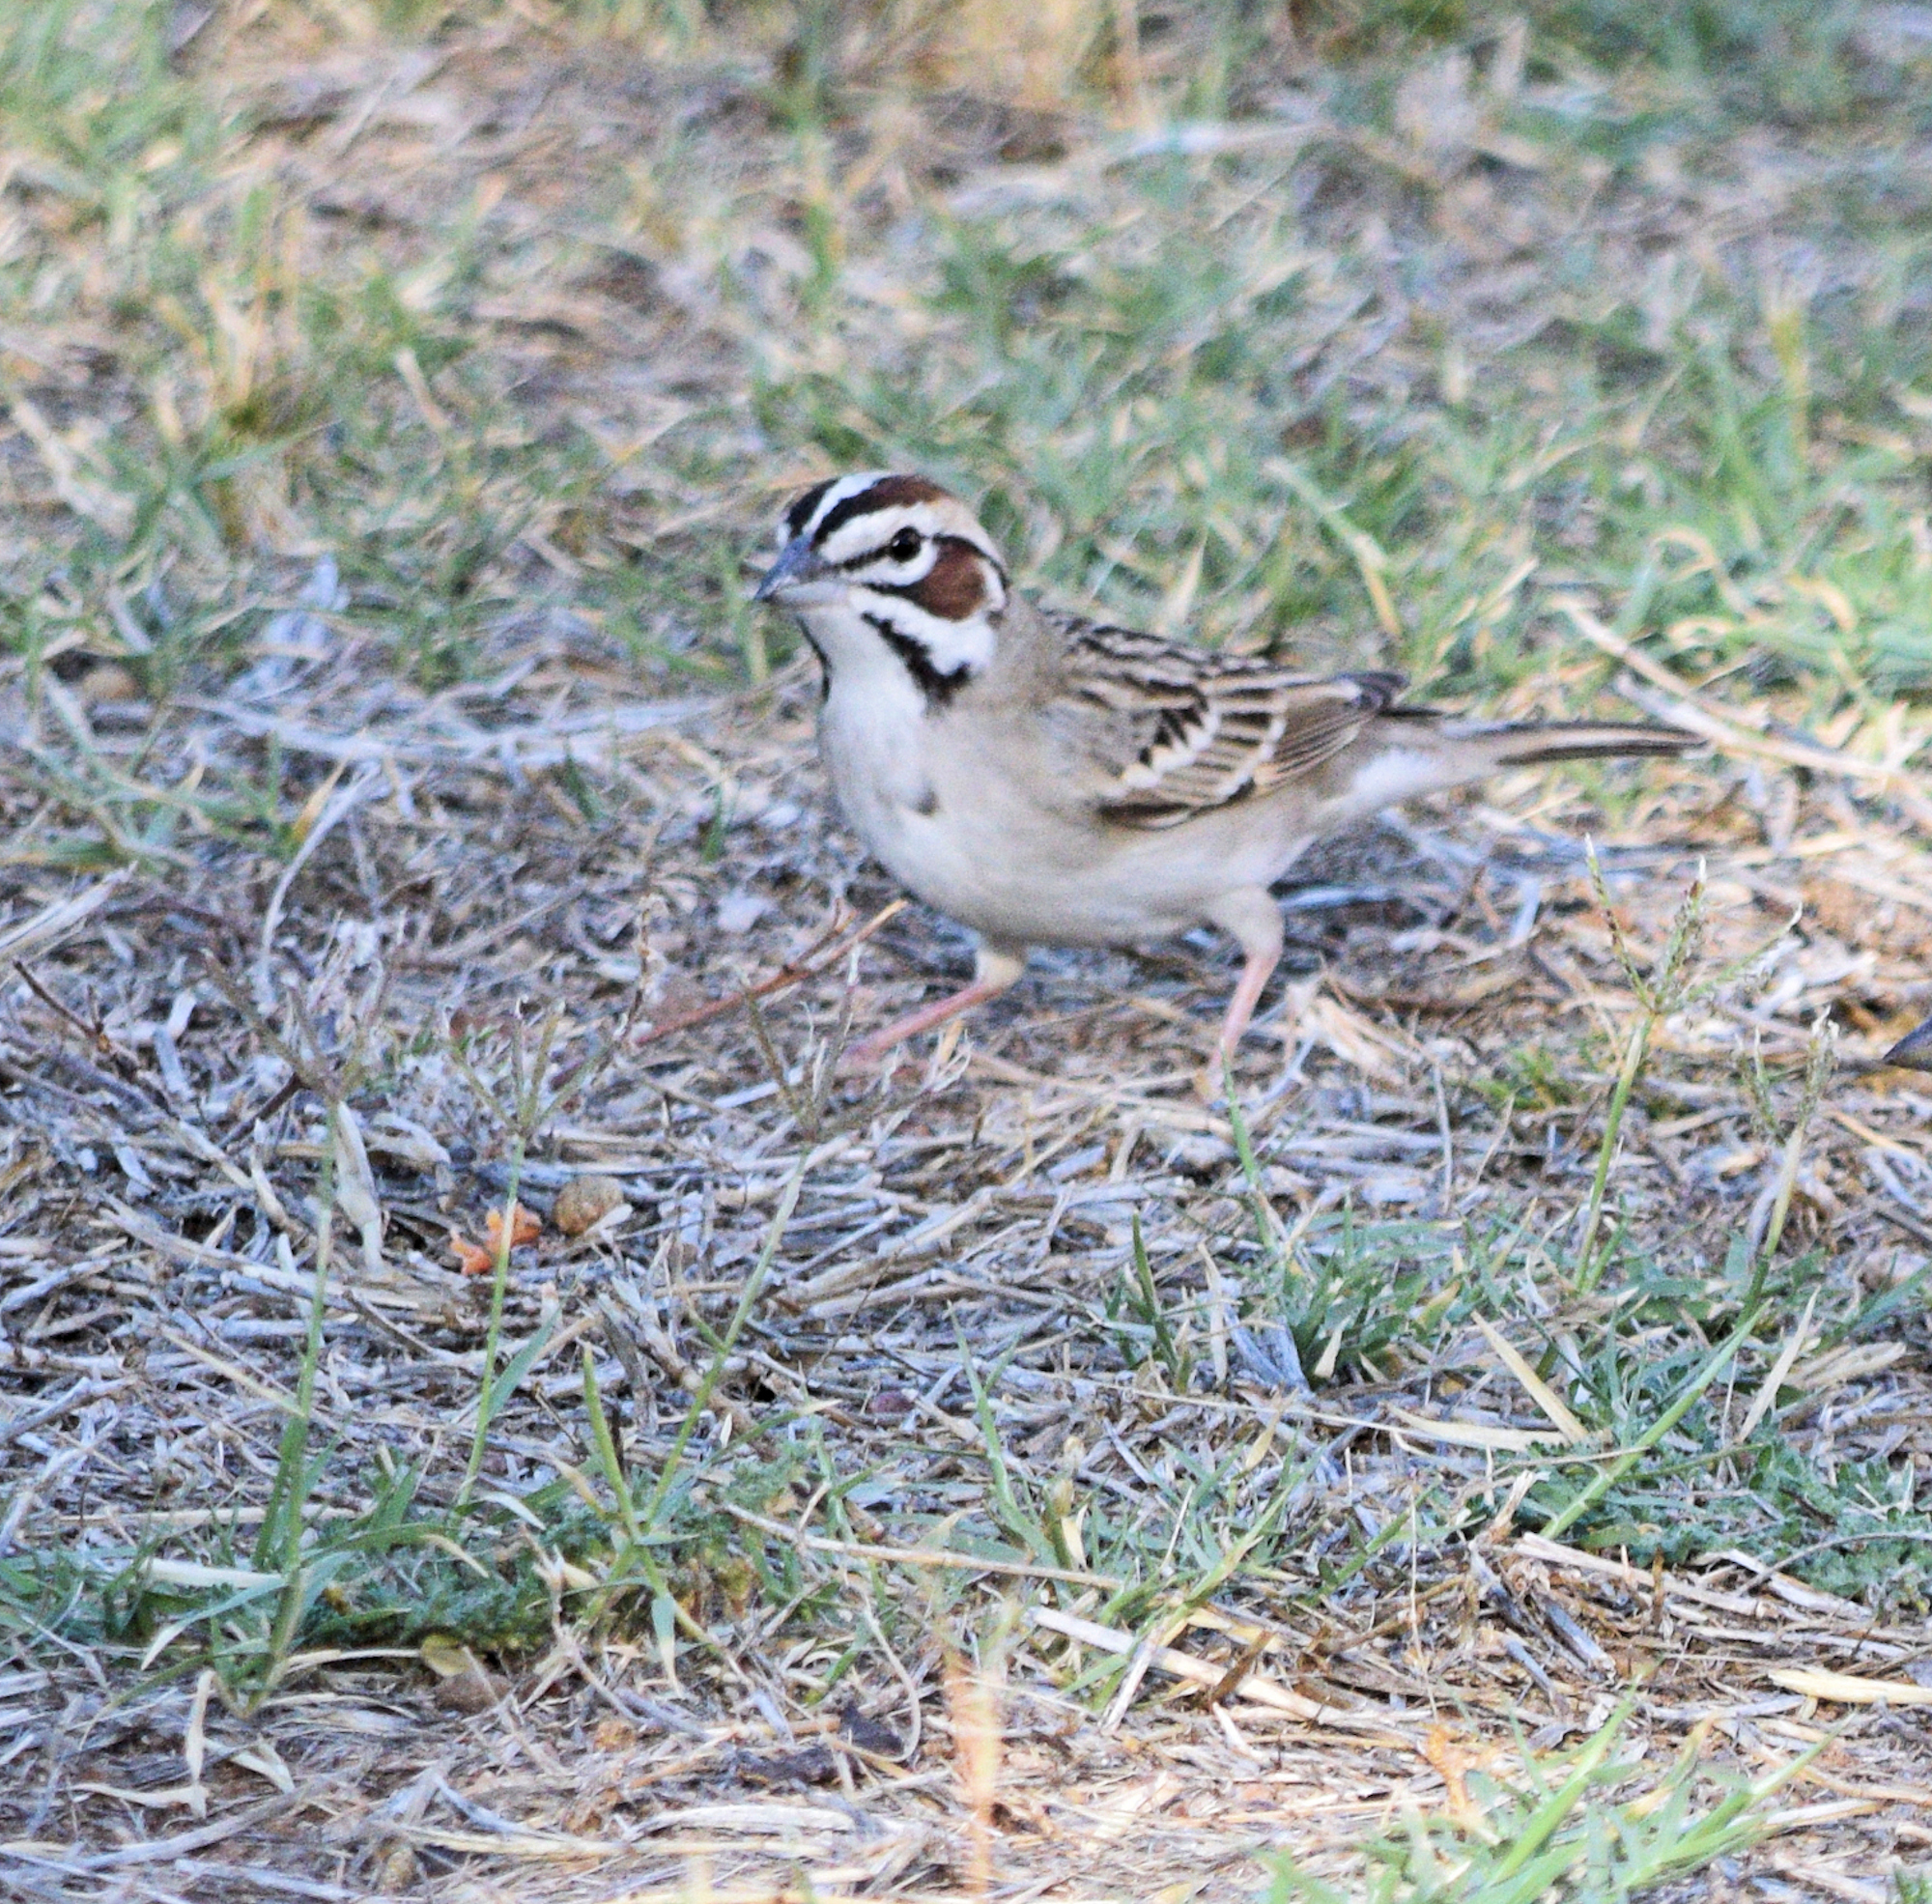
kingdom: Animalia
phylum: Chordata
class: Aves
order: Passeriformes
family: Passerellidae
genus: Chondestes
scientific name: Chondestes grammacus
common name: Lark sparrow
